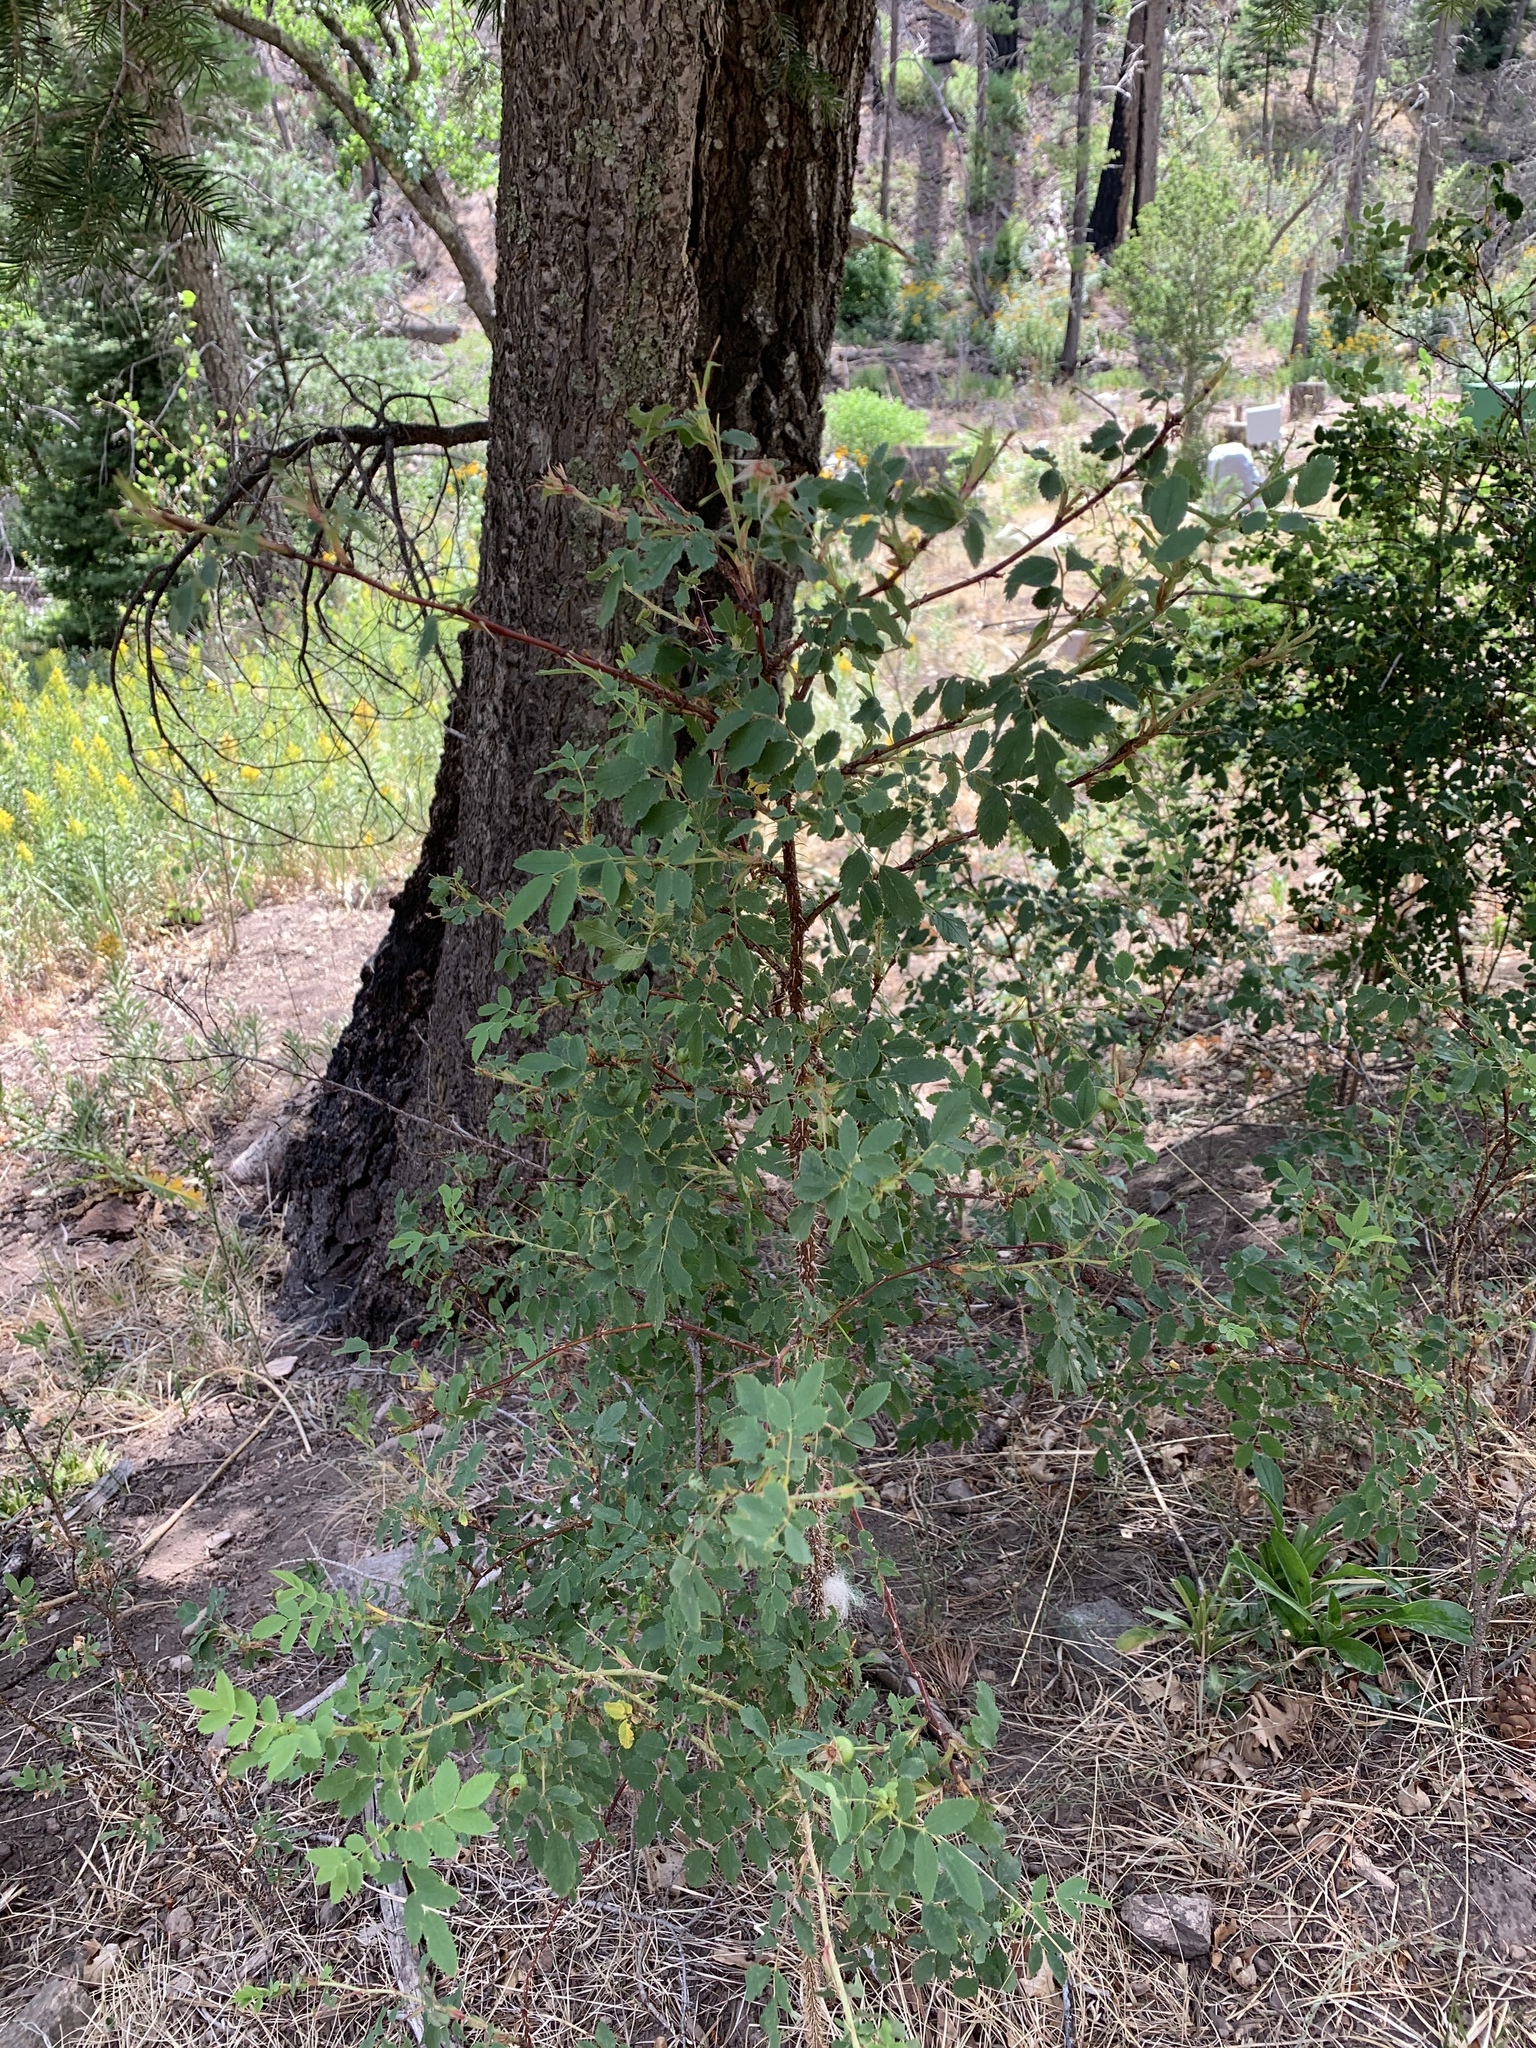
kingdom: Plantae
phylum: Tracheophyta
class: Magnoliopsida
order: Rosales
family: Rosaceae
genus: Rosa
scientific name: Rosa woodsii
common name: Woods's rose
